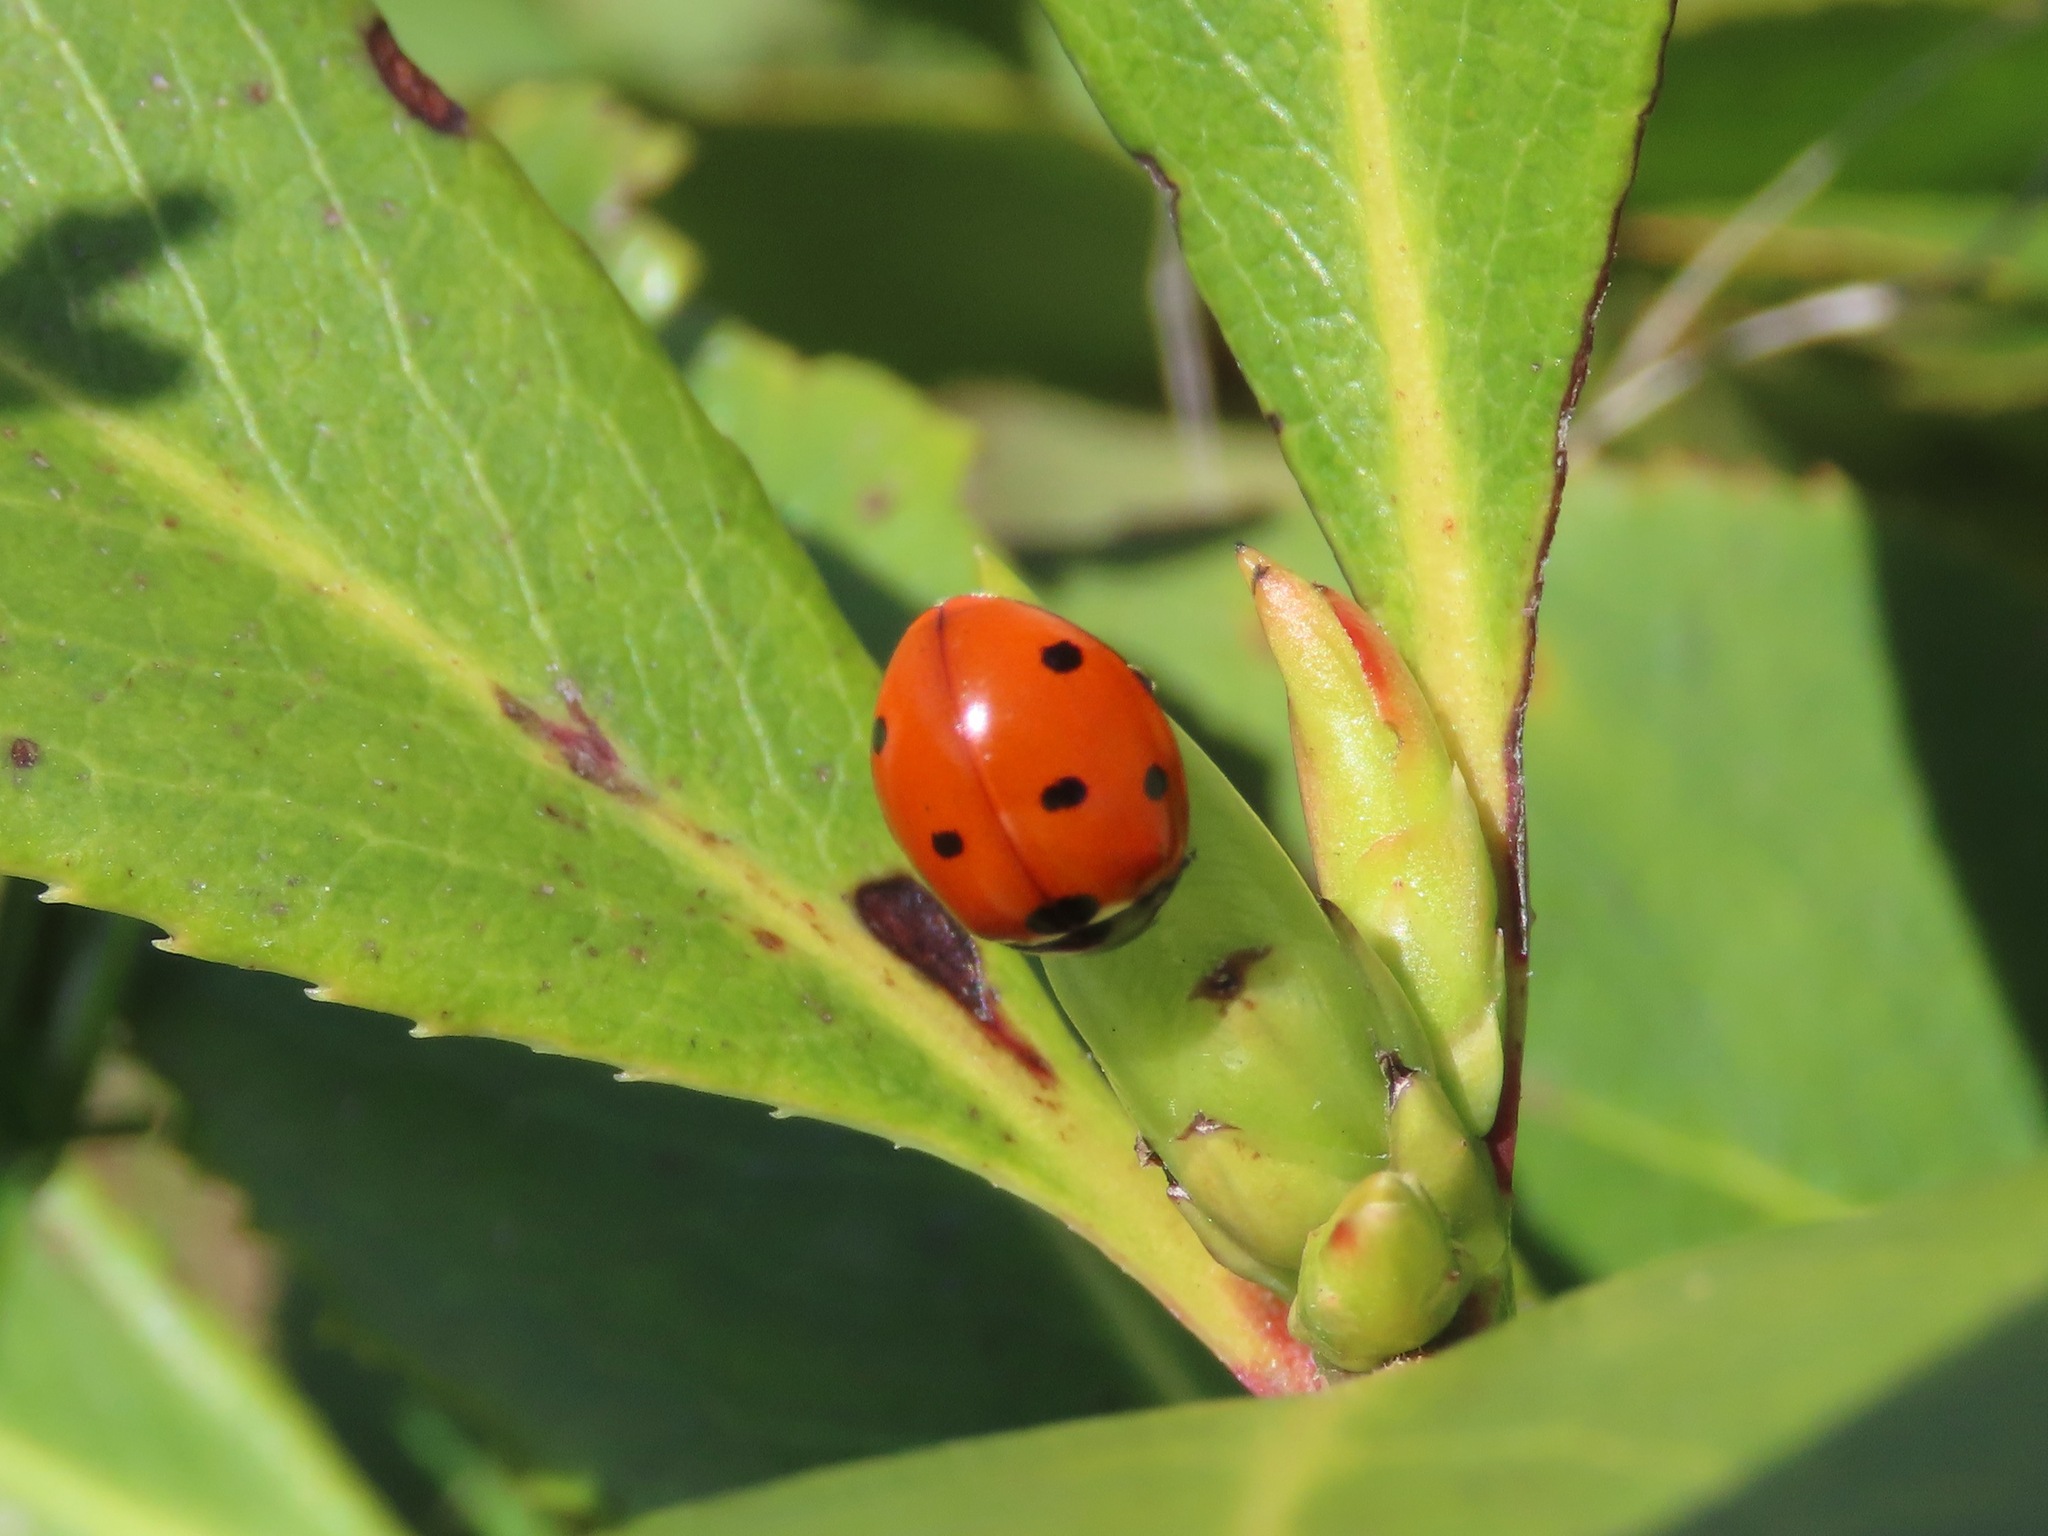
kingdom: Animalia
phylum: Arthropoda
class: Insecta
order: Coleoptera
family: Coccinellidae
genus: Coccinella
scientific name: Coccinella septempunctata
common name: Sevenspotted lady beetle
